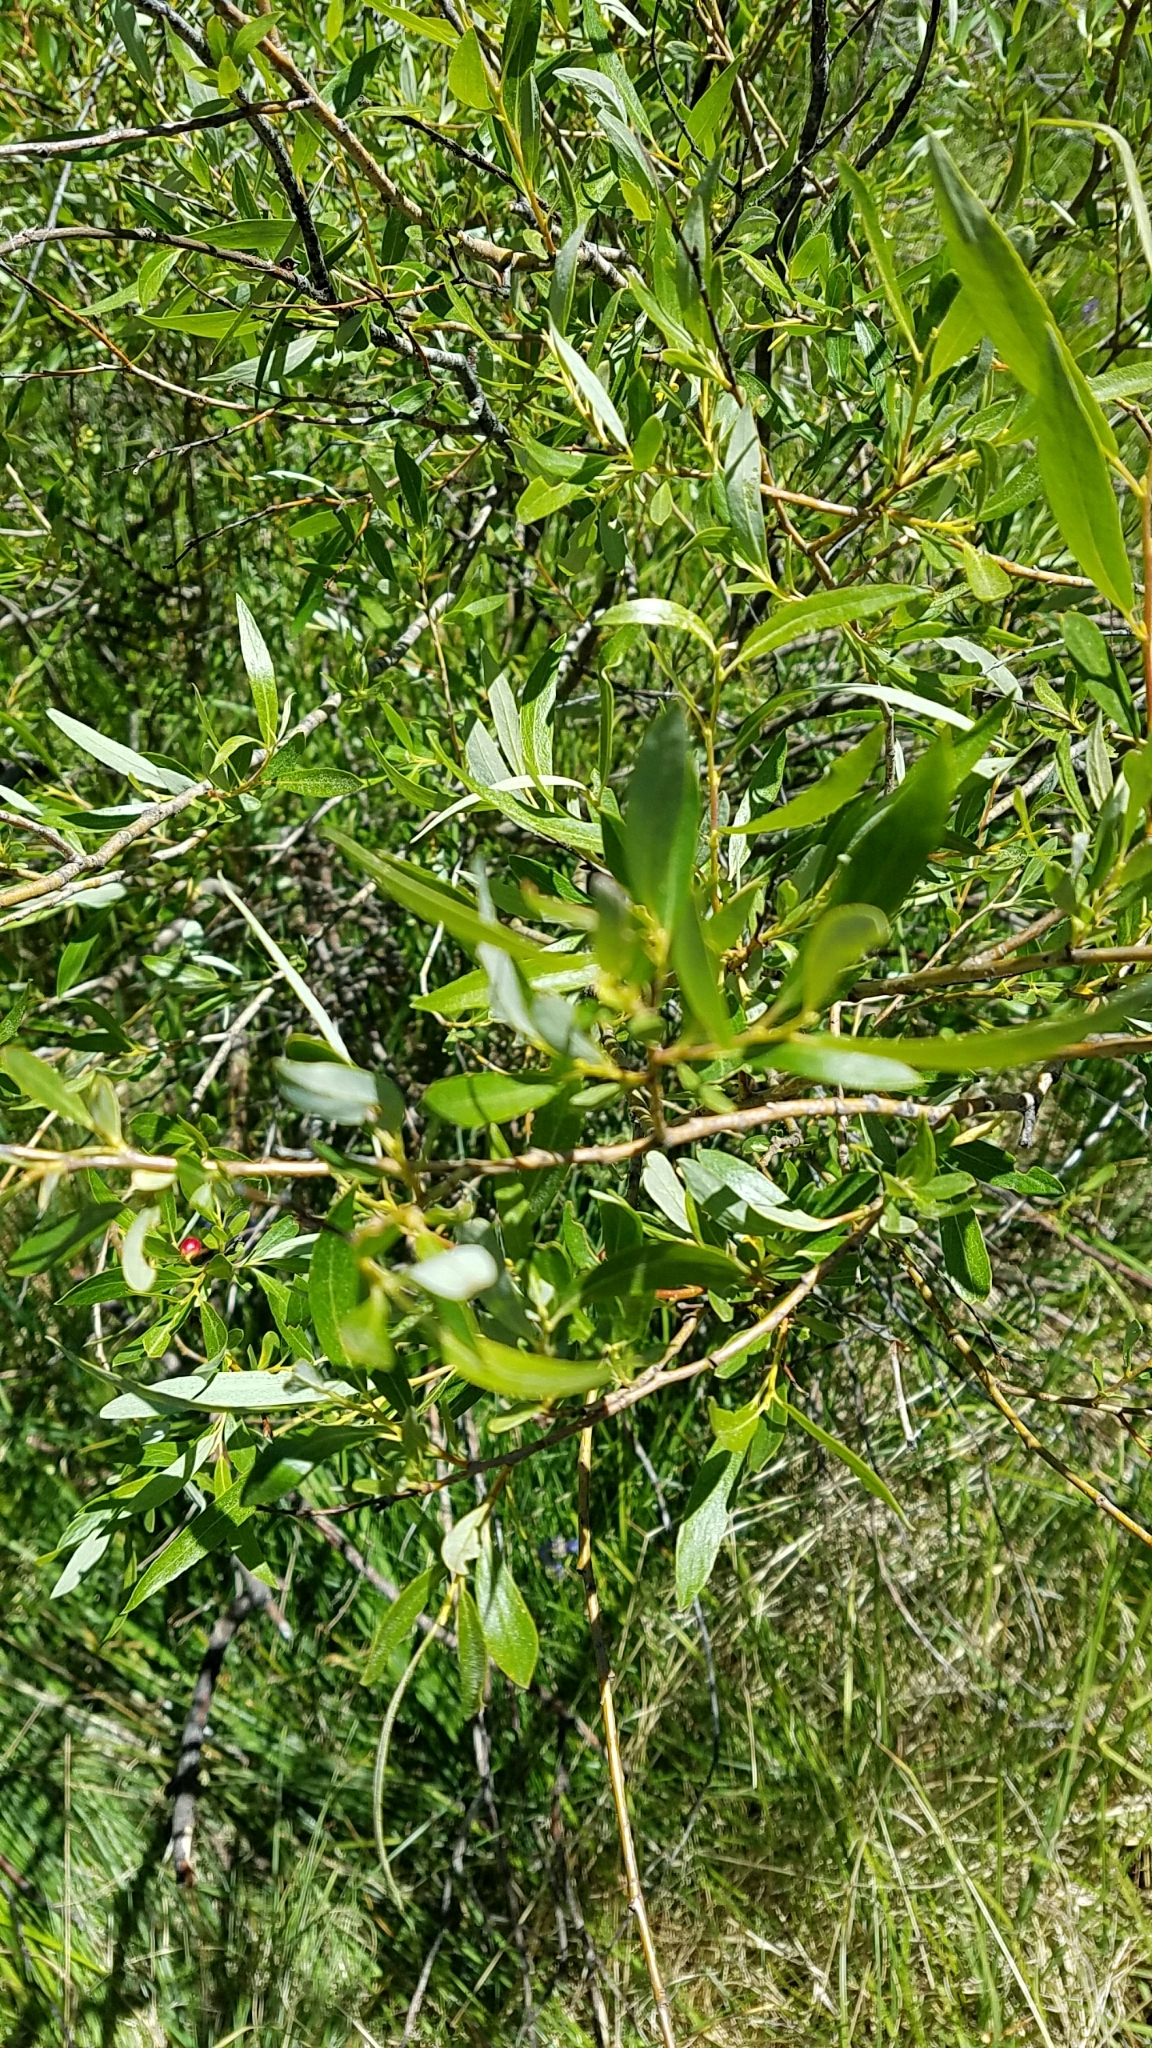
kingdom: Plantae
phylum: Tracheophyta
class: Magnoliopsida
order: Malpighiales
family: Salicaceae
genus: Salix
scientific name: Salix lemmonii
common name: Lemmon's willow
